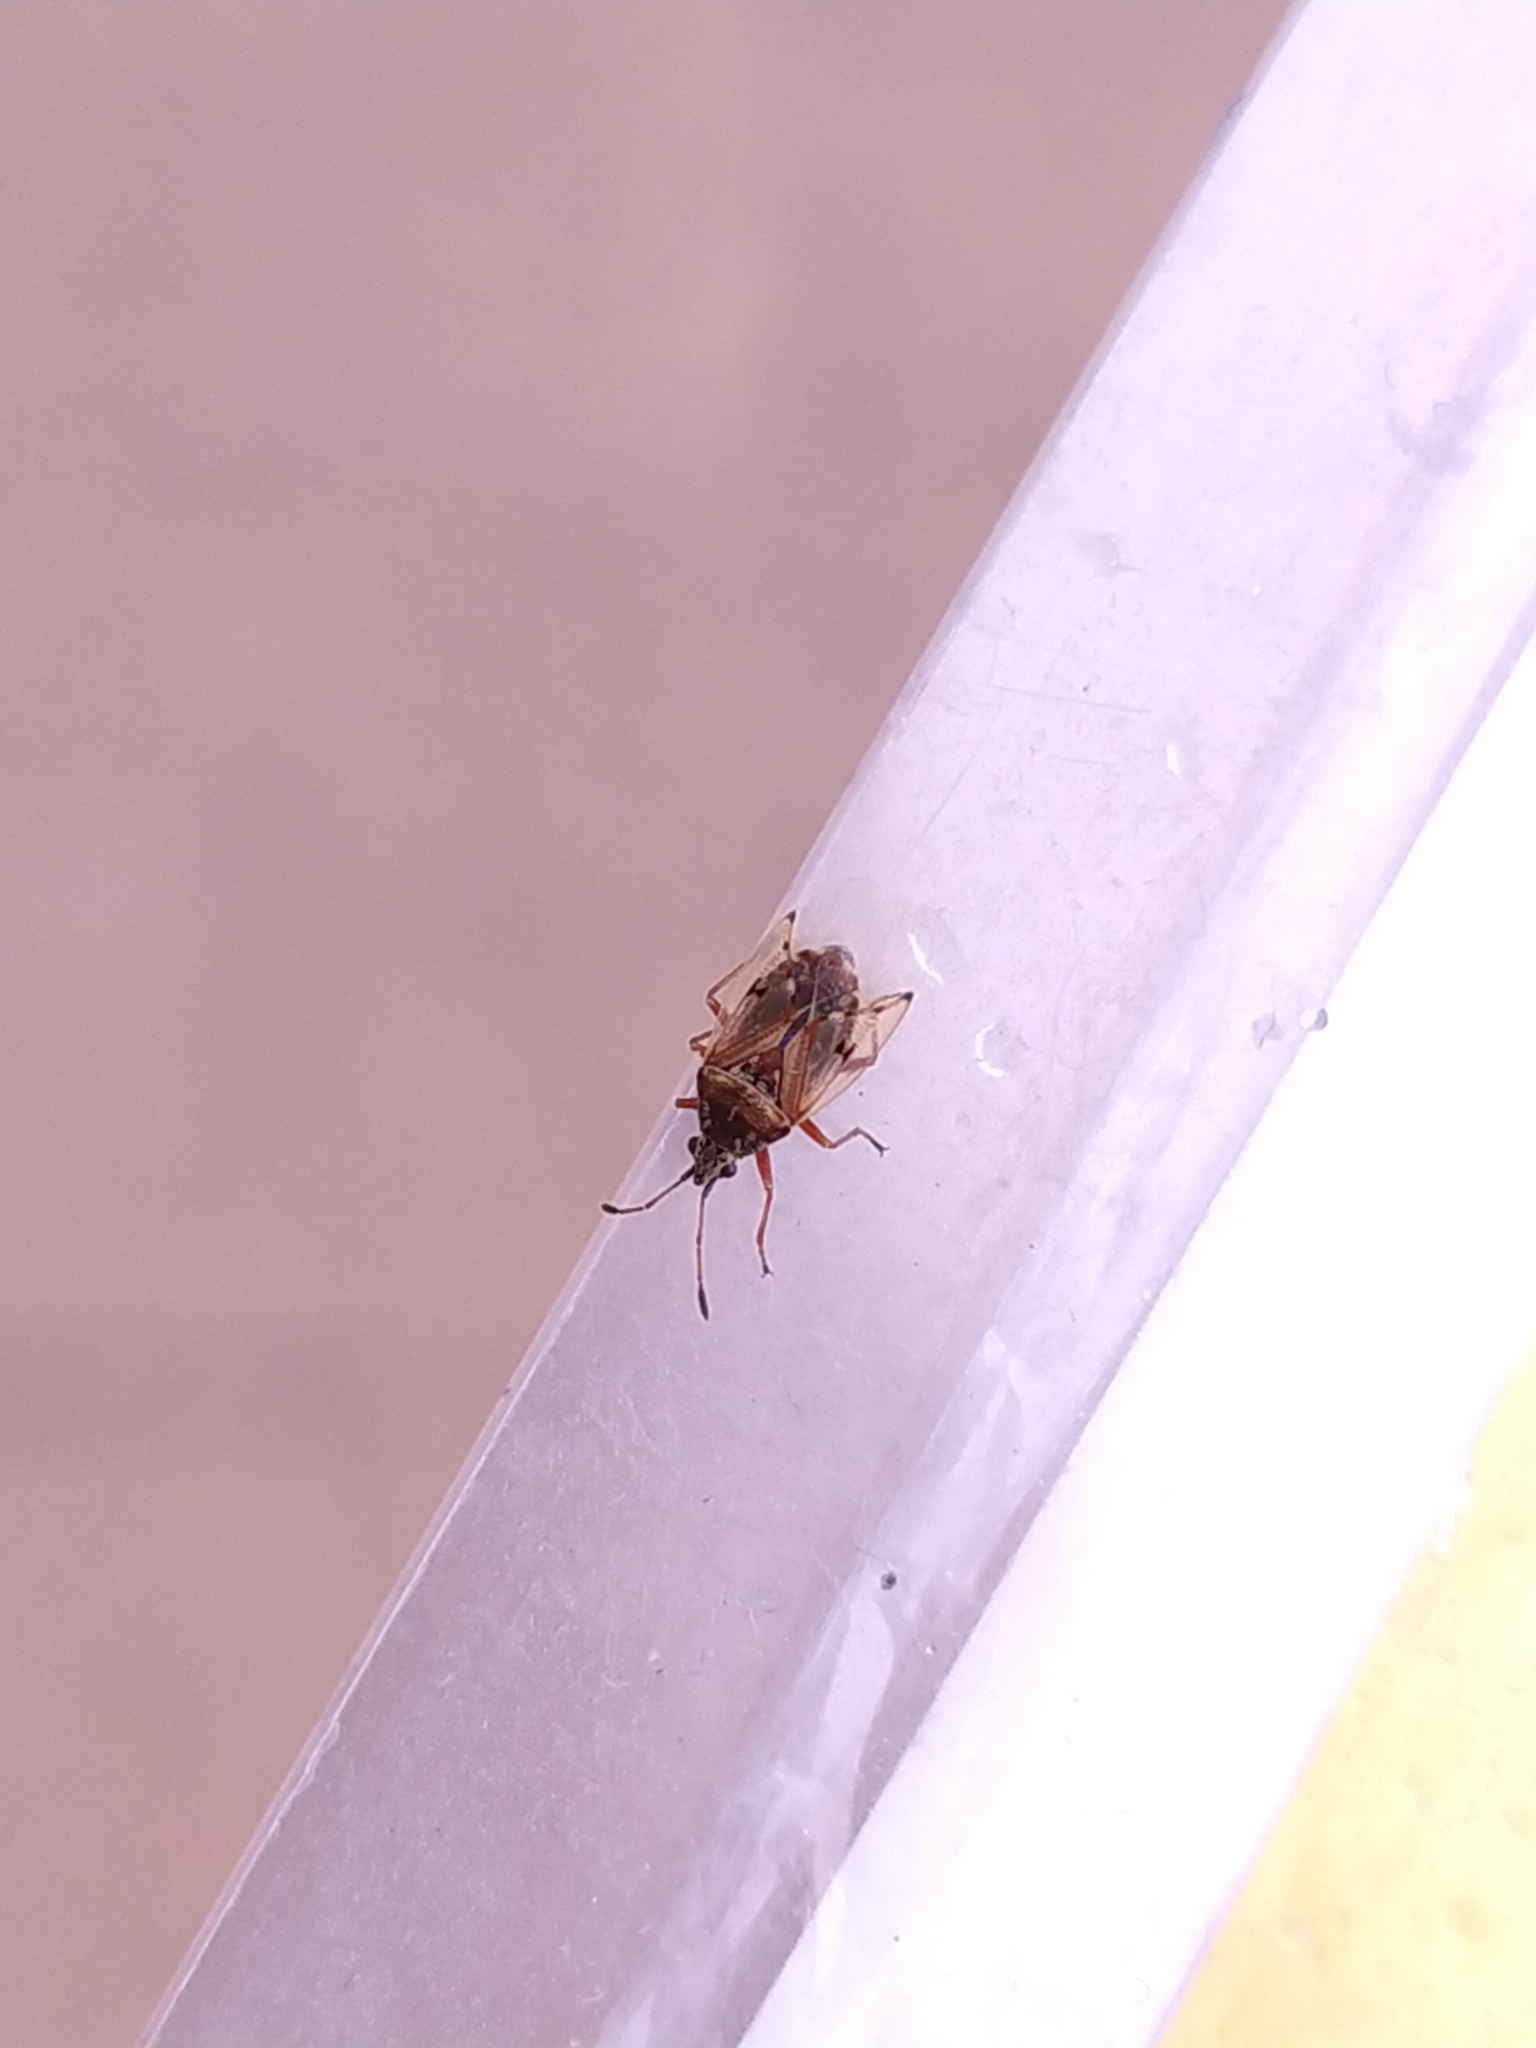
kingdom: Animalia
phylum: Arthropoda
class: Insecta
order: Hemiptera
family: Lygaeidae
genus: Kleidocerys
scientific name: Kleidocerys resedae
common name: Birch catkin bug
